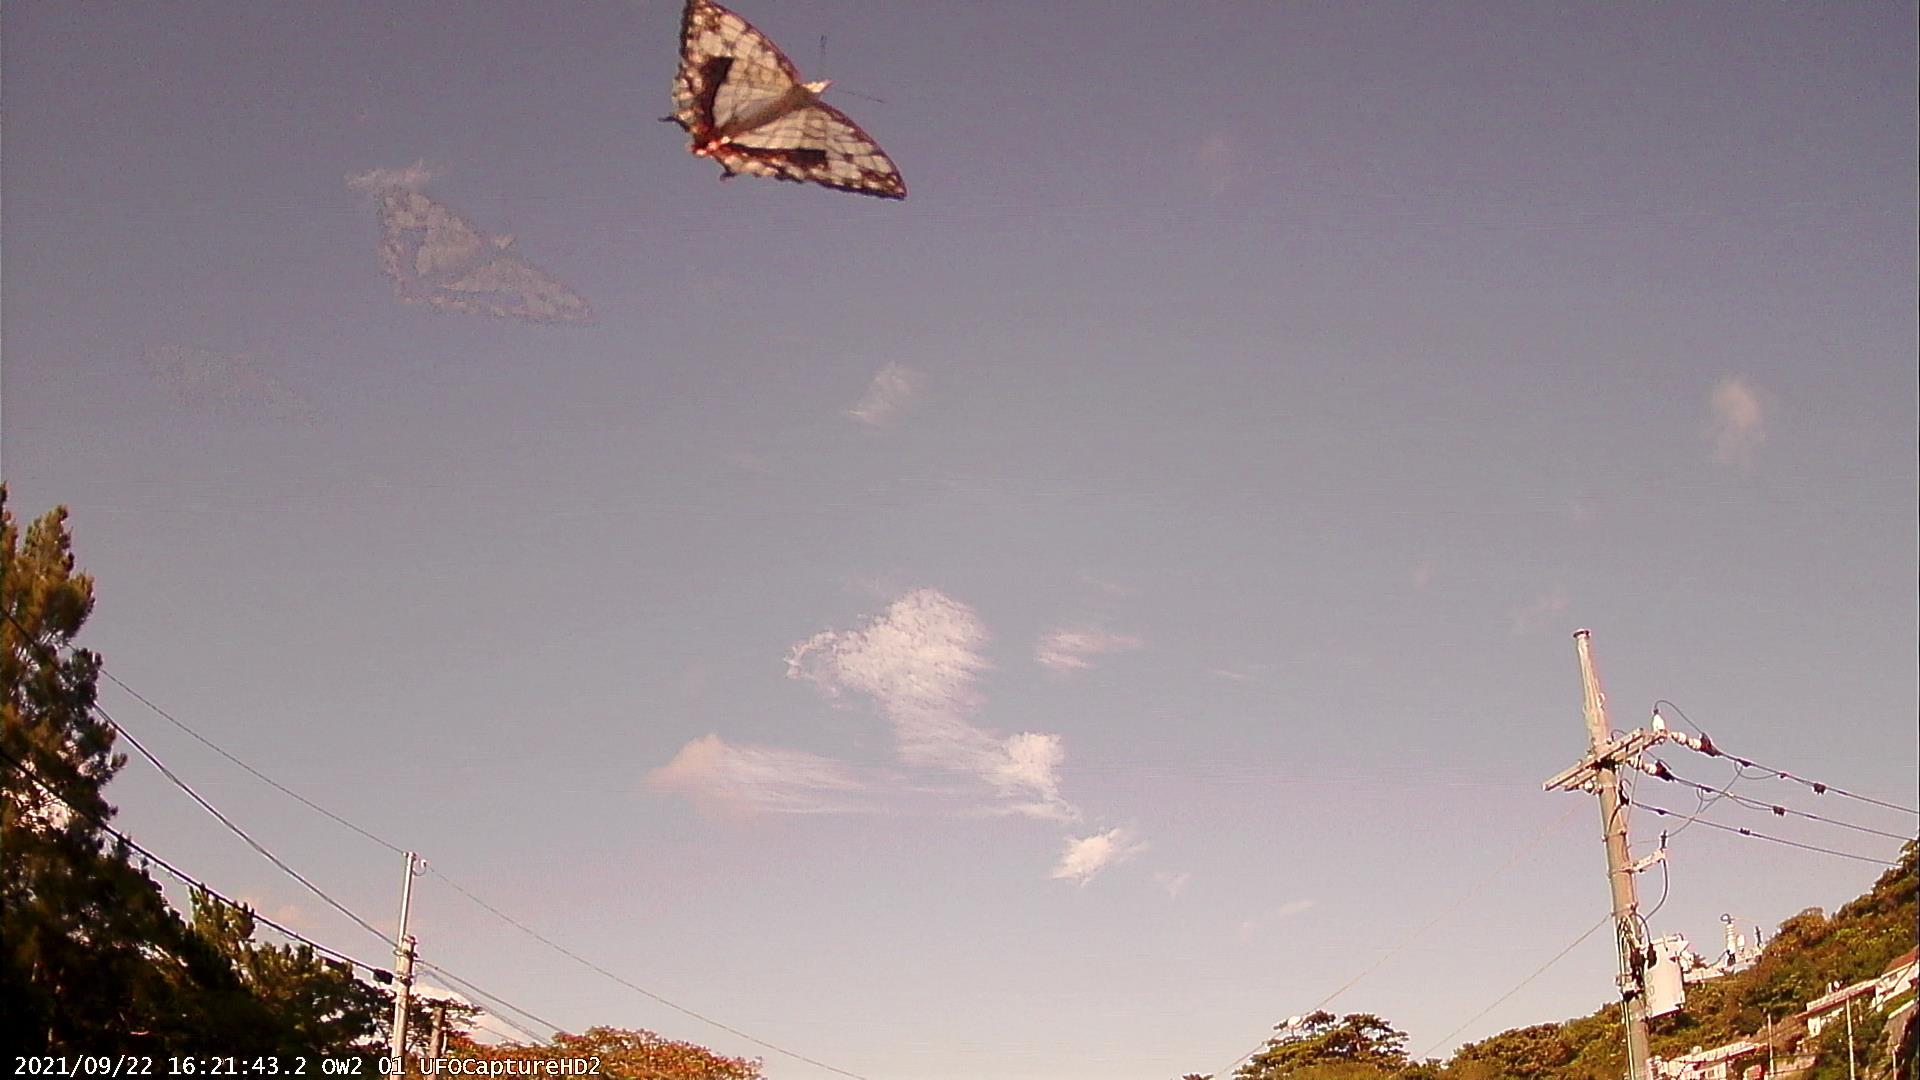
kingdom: Animalia
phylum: Arthropoda
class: Insecta
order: Lepidoptera
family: Nymphalidae
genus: Cyrestis
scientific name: Cyrestis thyodamas
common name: Common mapwing
